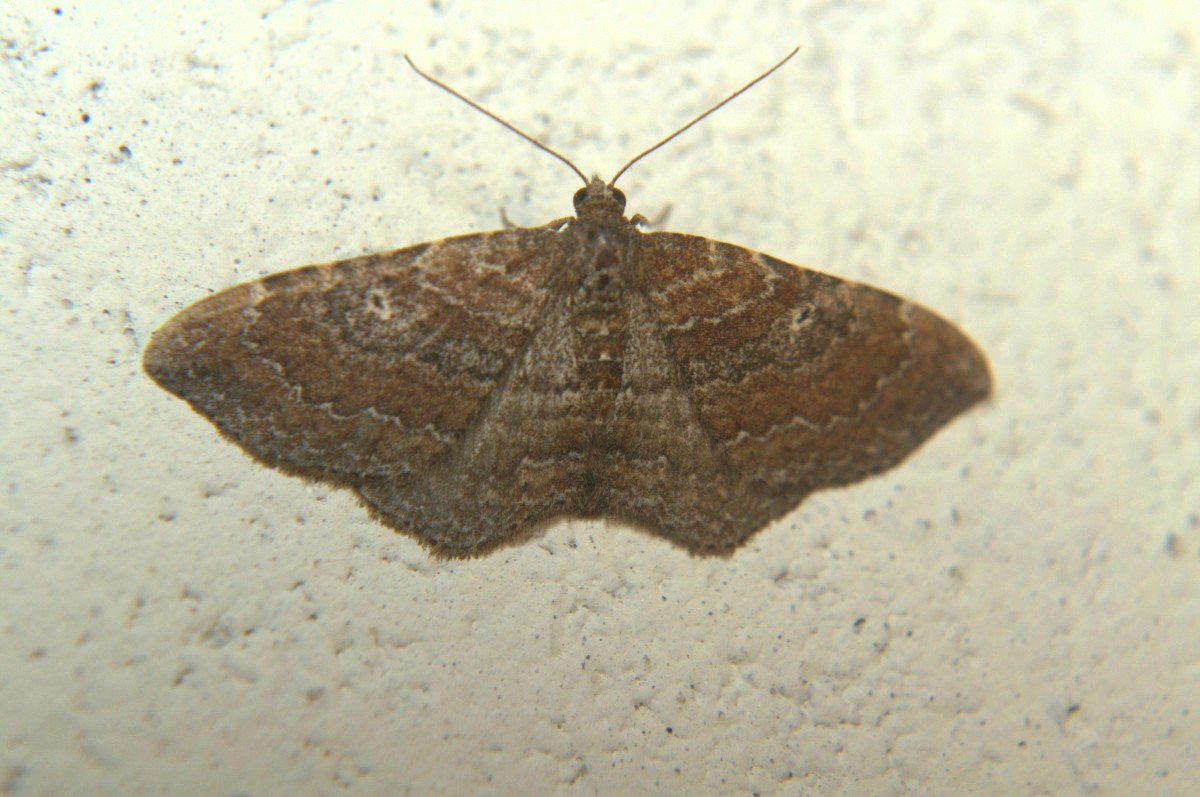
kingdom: Animalia
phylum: Arthropoda
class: Insecta
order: Lepidoptera
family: Geometridae
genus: Orthonama
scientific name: Orthonama obstipata
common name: The gem
